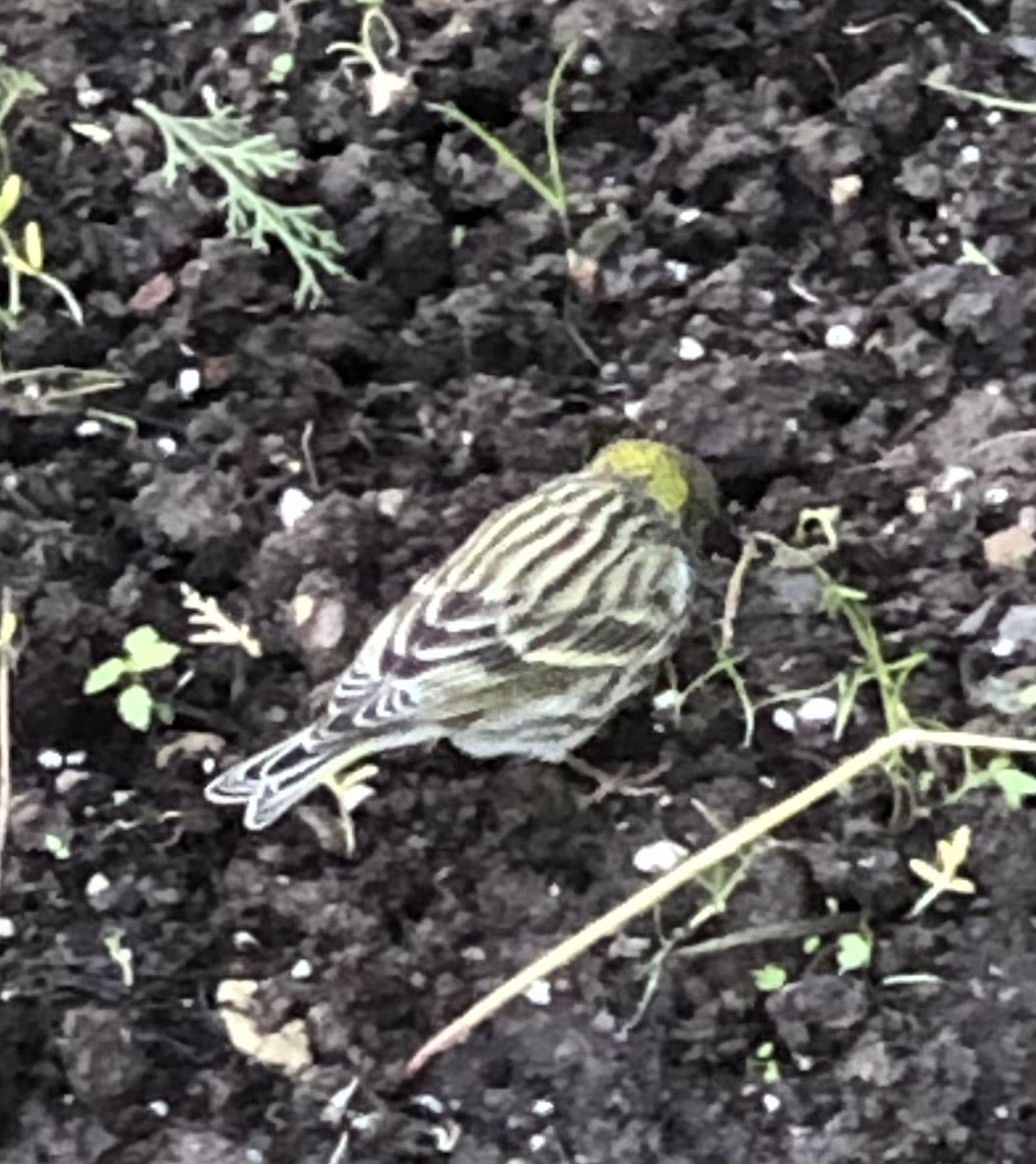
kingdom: Animalia
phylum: Chordata
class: Aves
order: Passeriformes
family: Fringillidae
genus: Serinus
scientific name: Serinus serinus
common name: European serin
